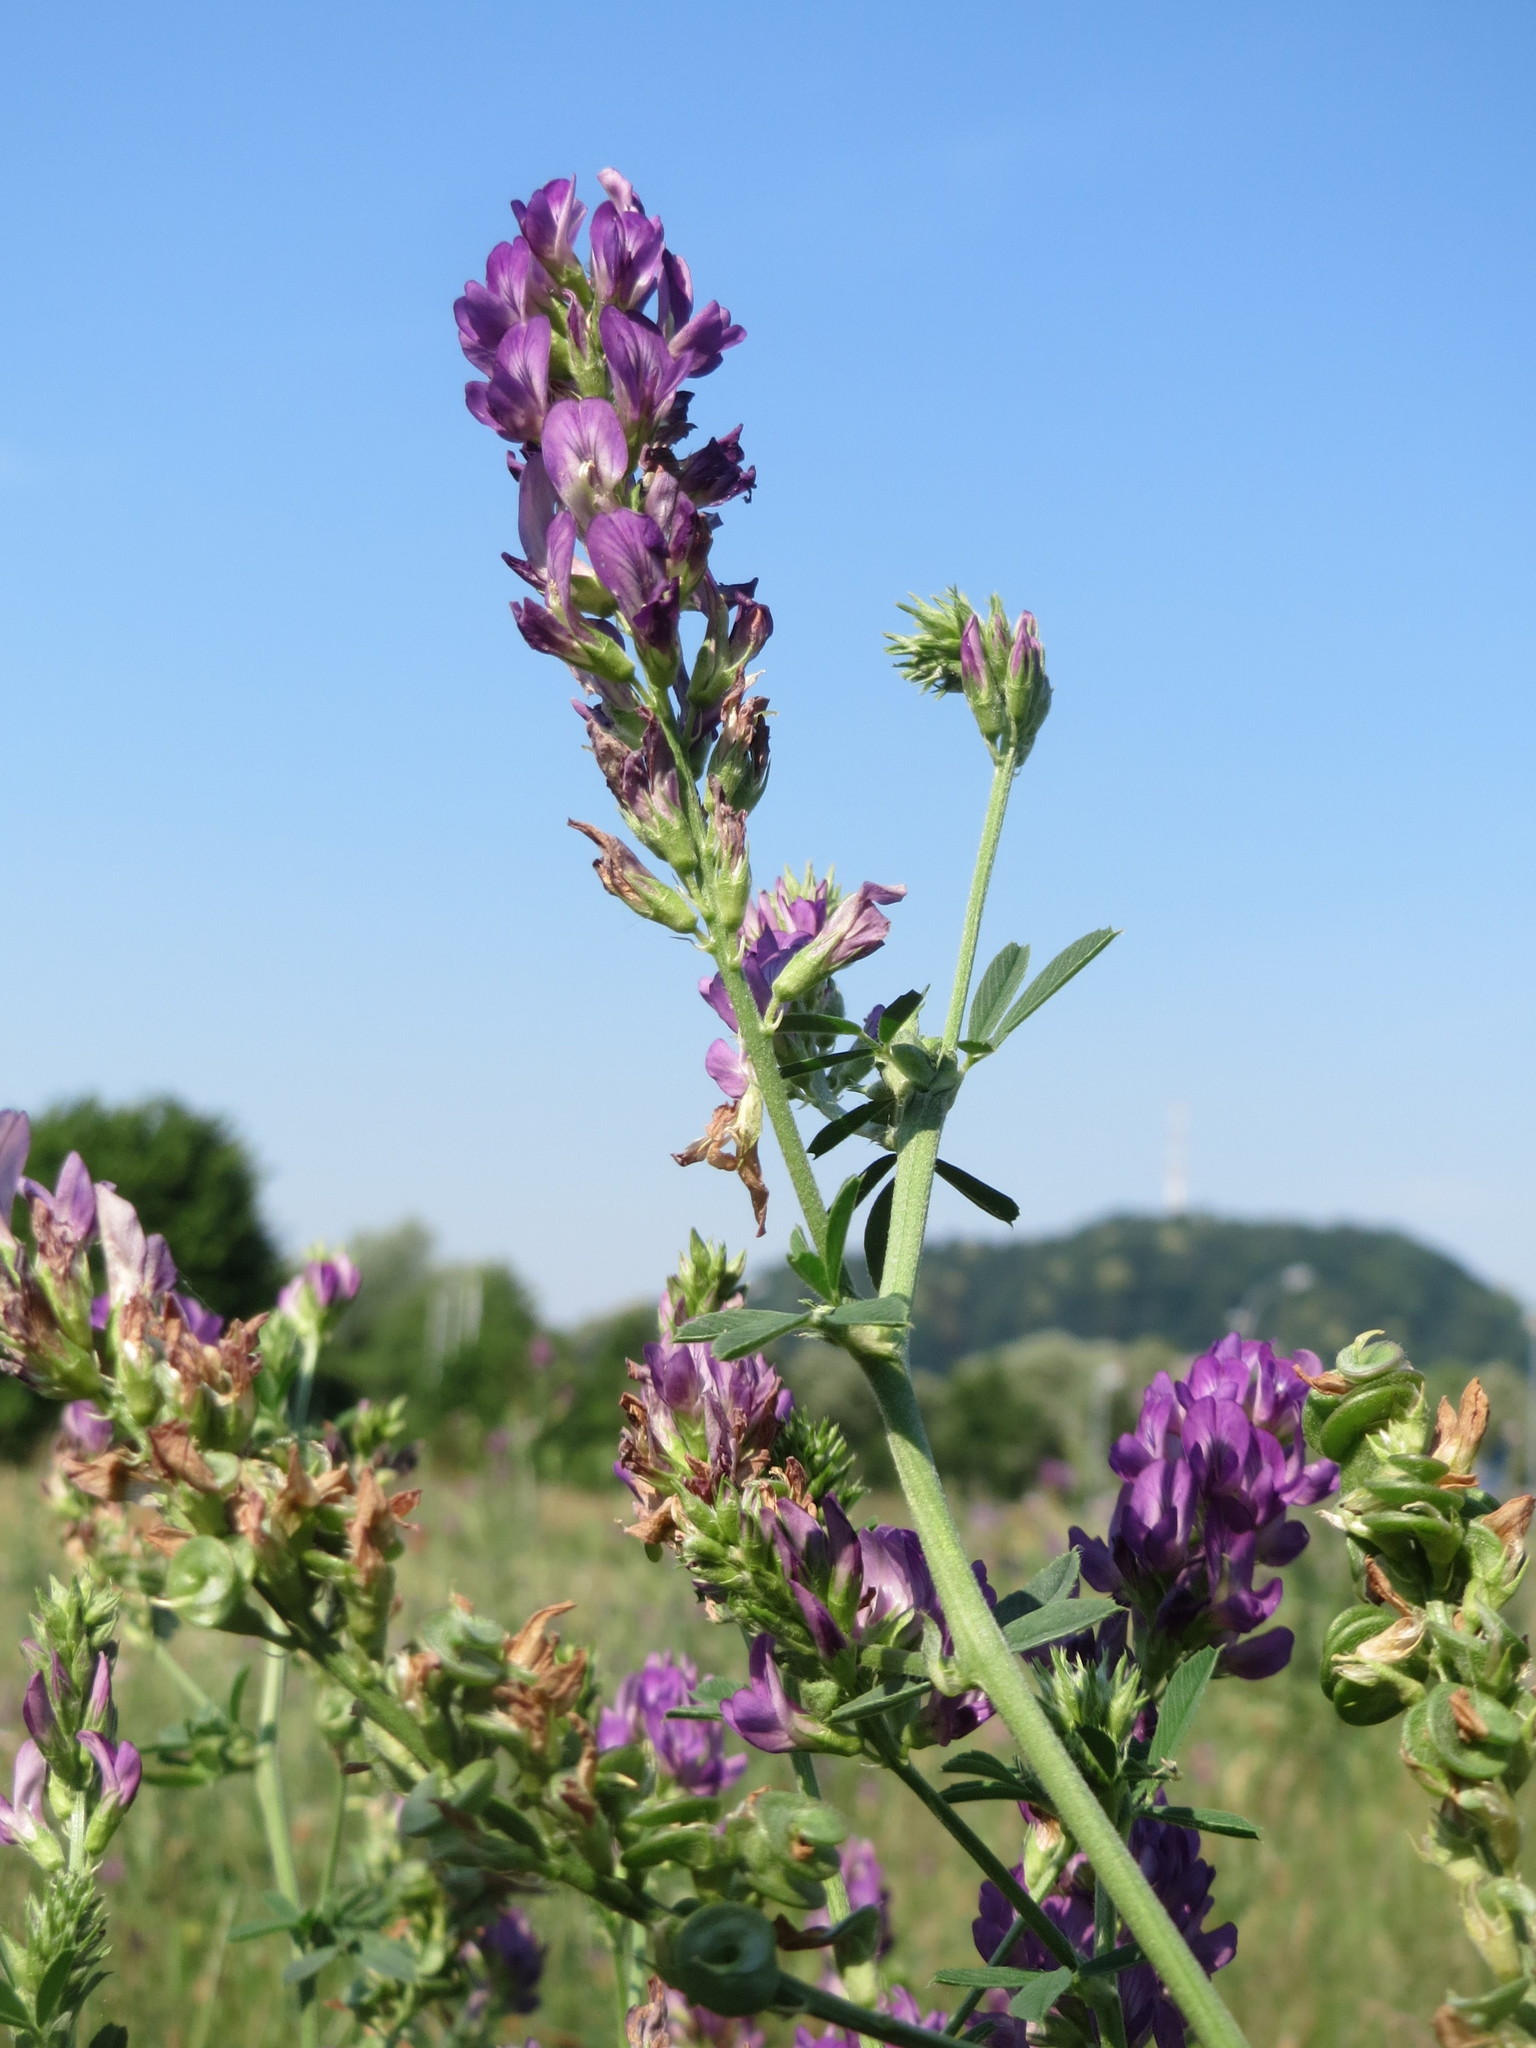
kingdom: Plantae
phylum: Tracheophyta
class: Magnoliopsida
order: Fabales
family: Fabaceae
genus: Medicago
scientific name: Medicago sativa
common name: Alfalfa
